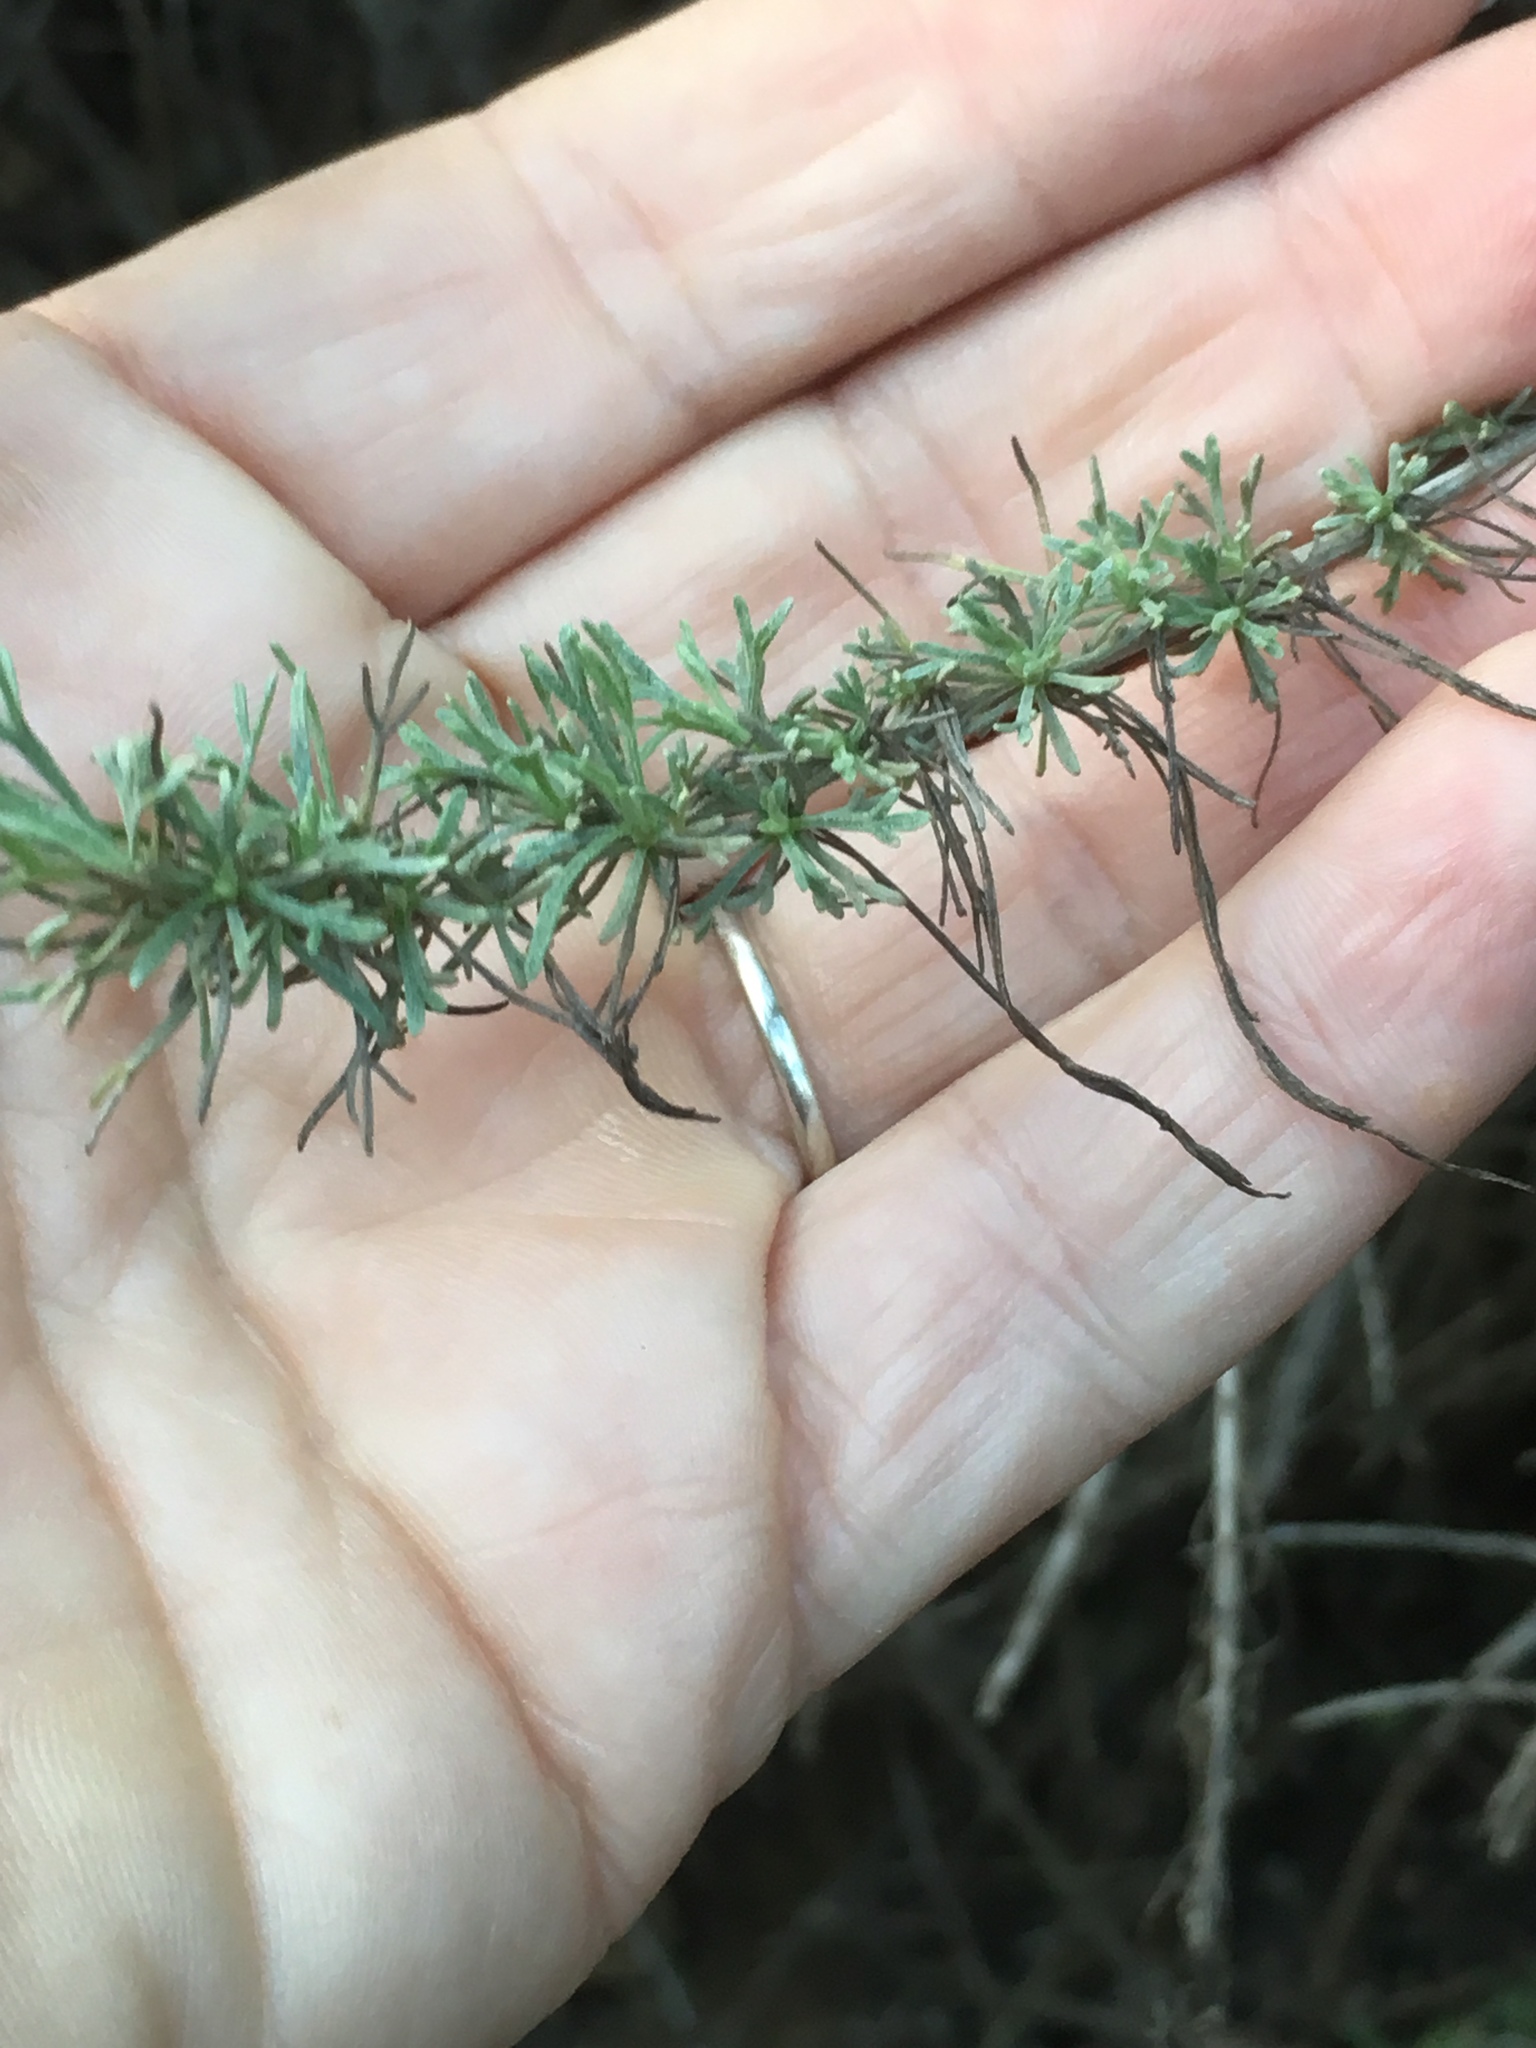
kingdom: Plantae
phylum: Tracheophyta
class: Magnoliopsida
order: Asterales
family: Asteraceae
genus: Artemisia
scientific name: Artemisia californica
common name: California sagebrush
